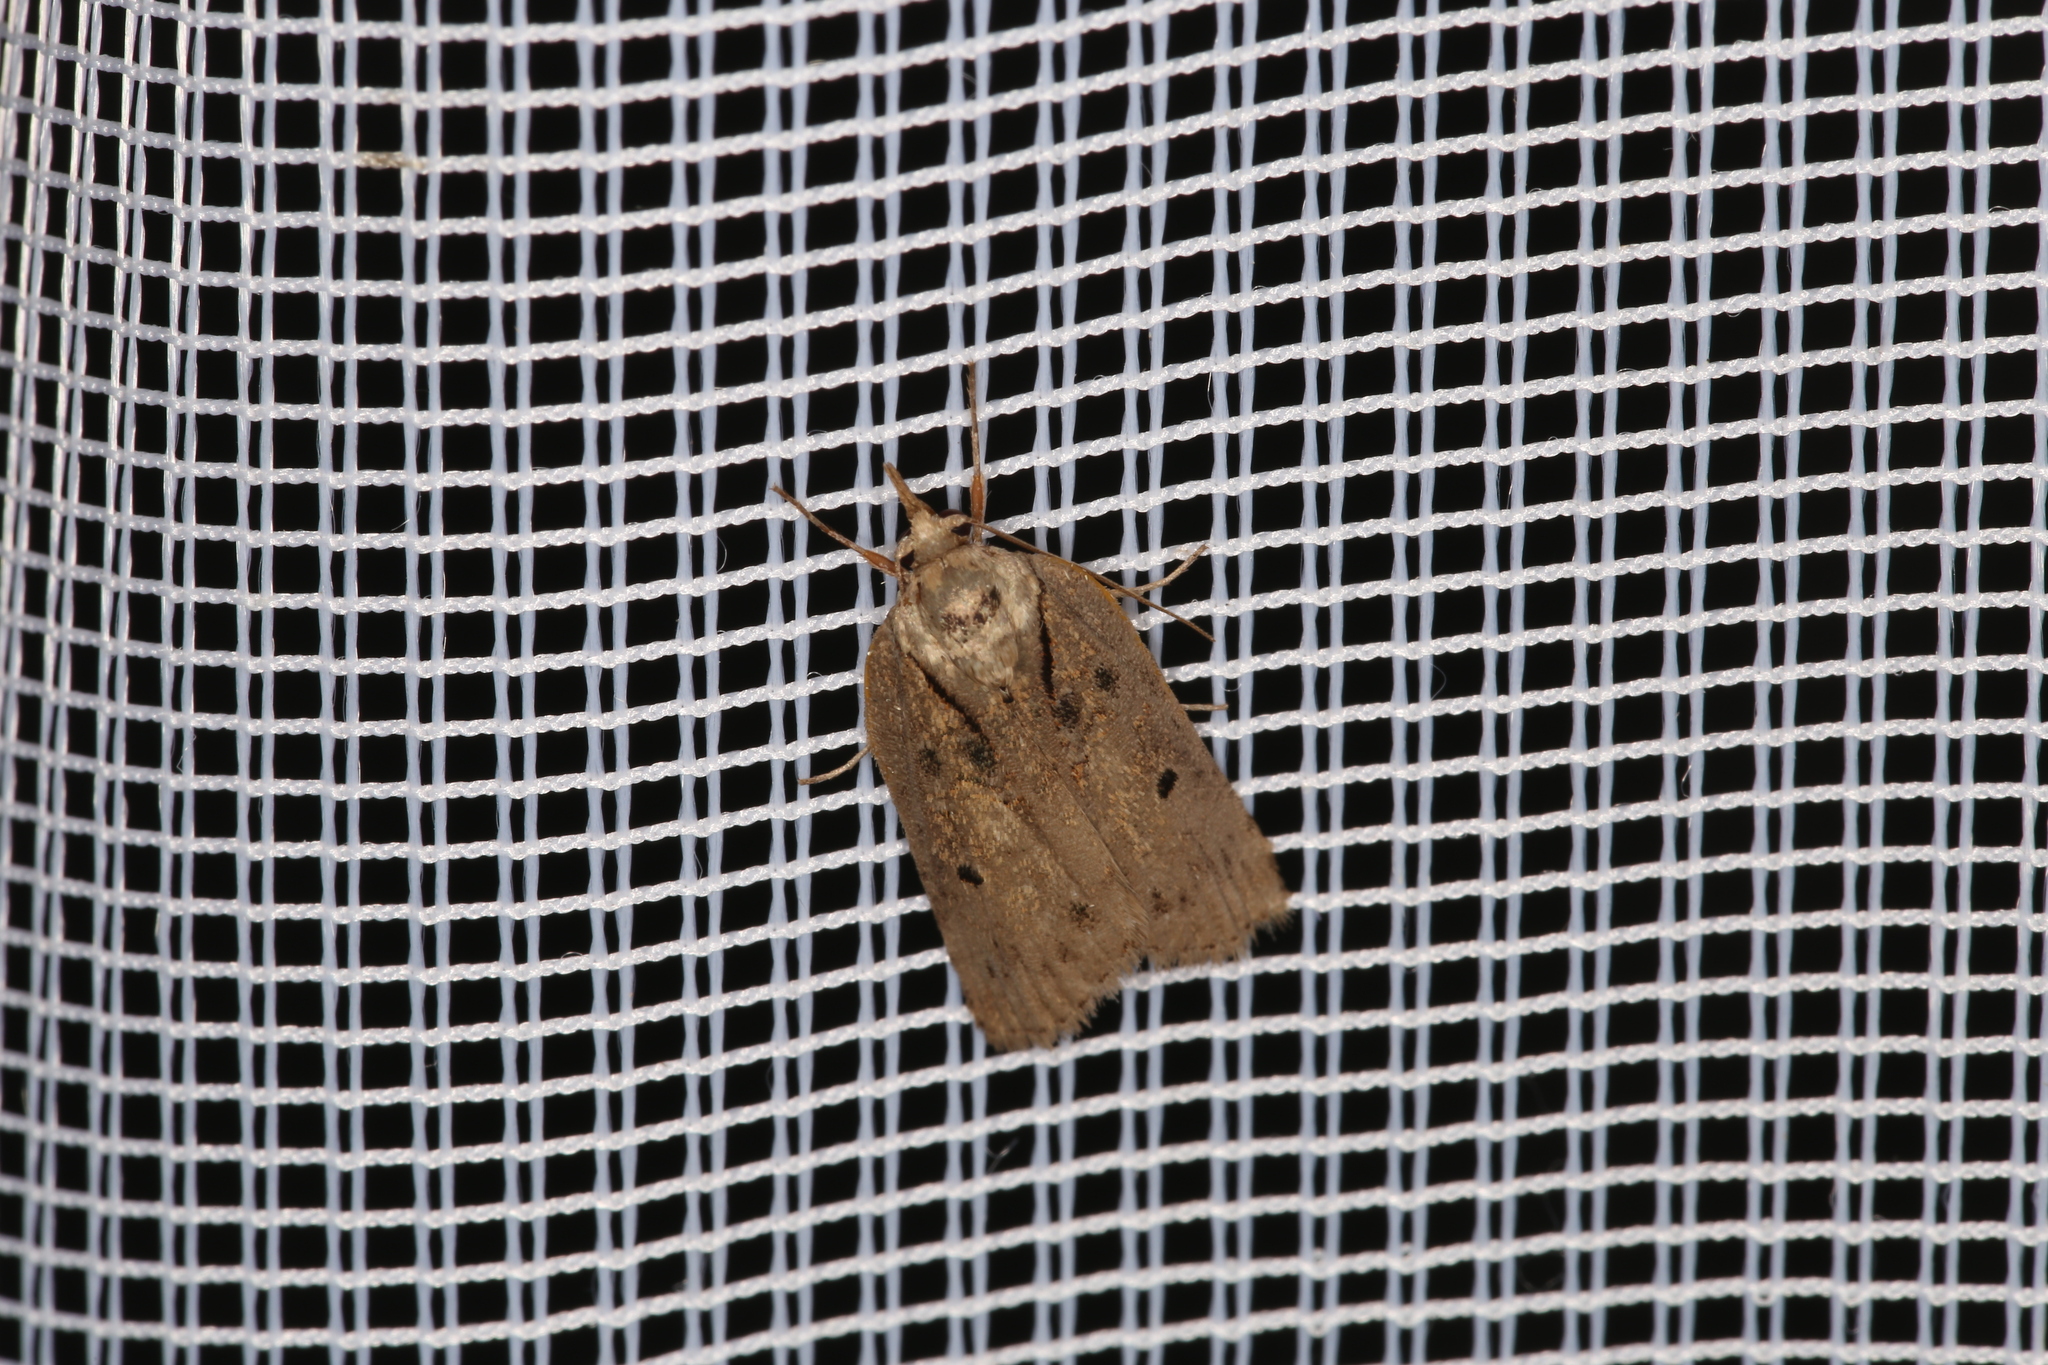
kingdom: Animalia
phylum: Arthropoda
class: Insecta
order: Lepidoptera
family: Nolidae
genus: Nycteola
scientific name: Nycteola revayana
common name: Oak nycteoline
